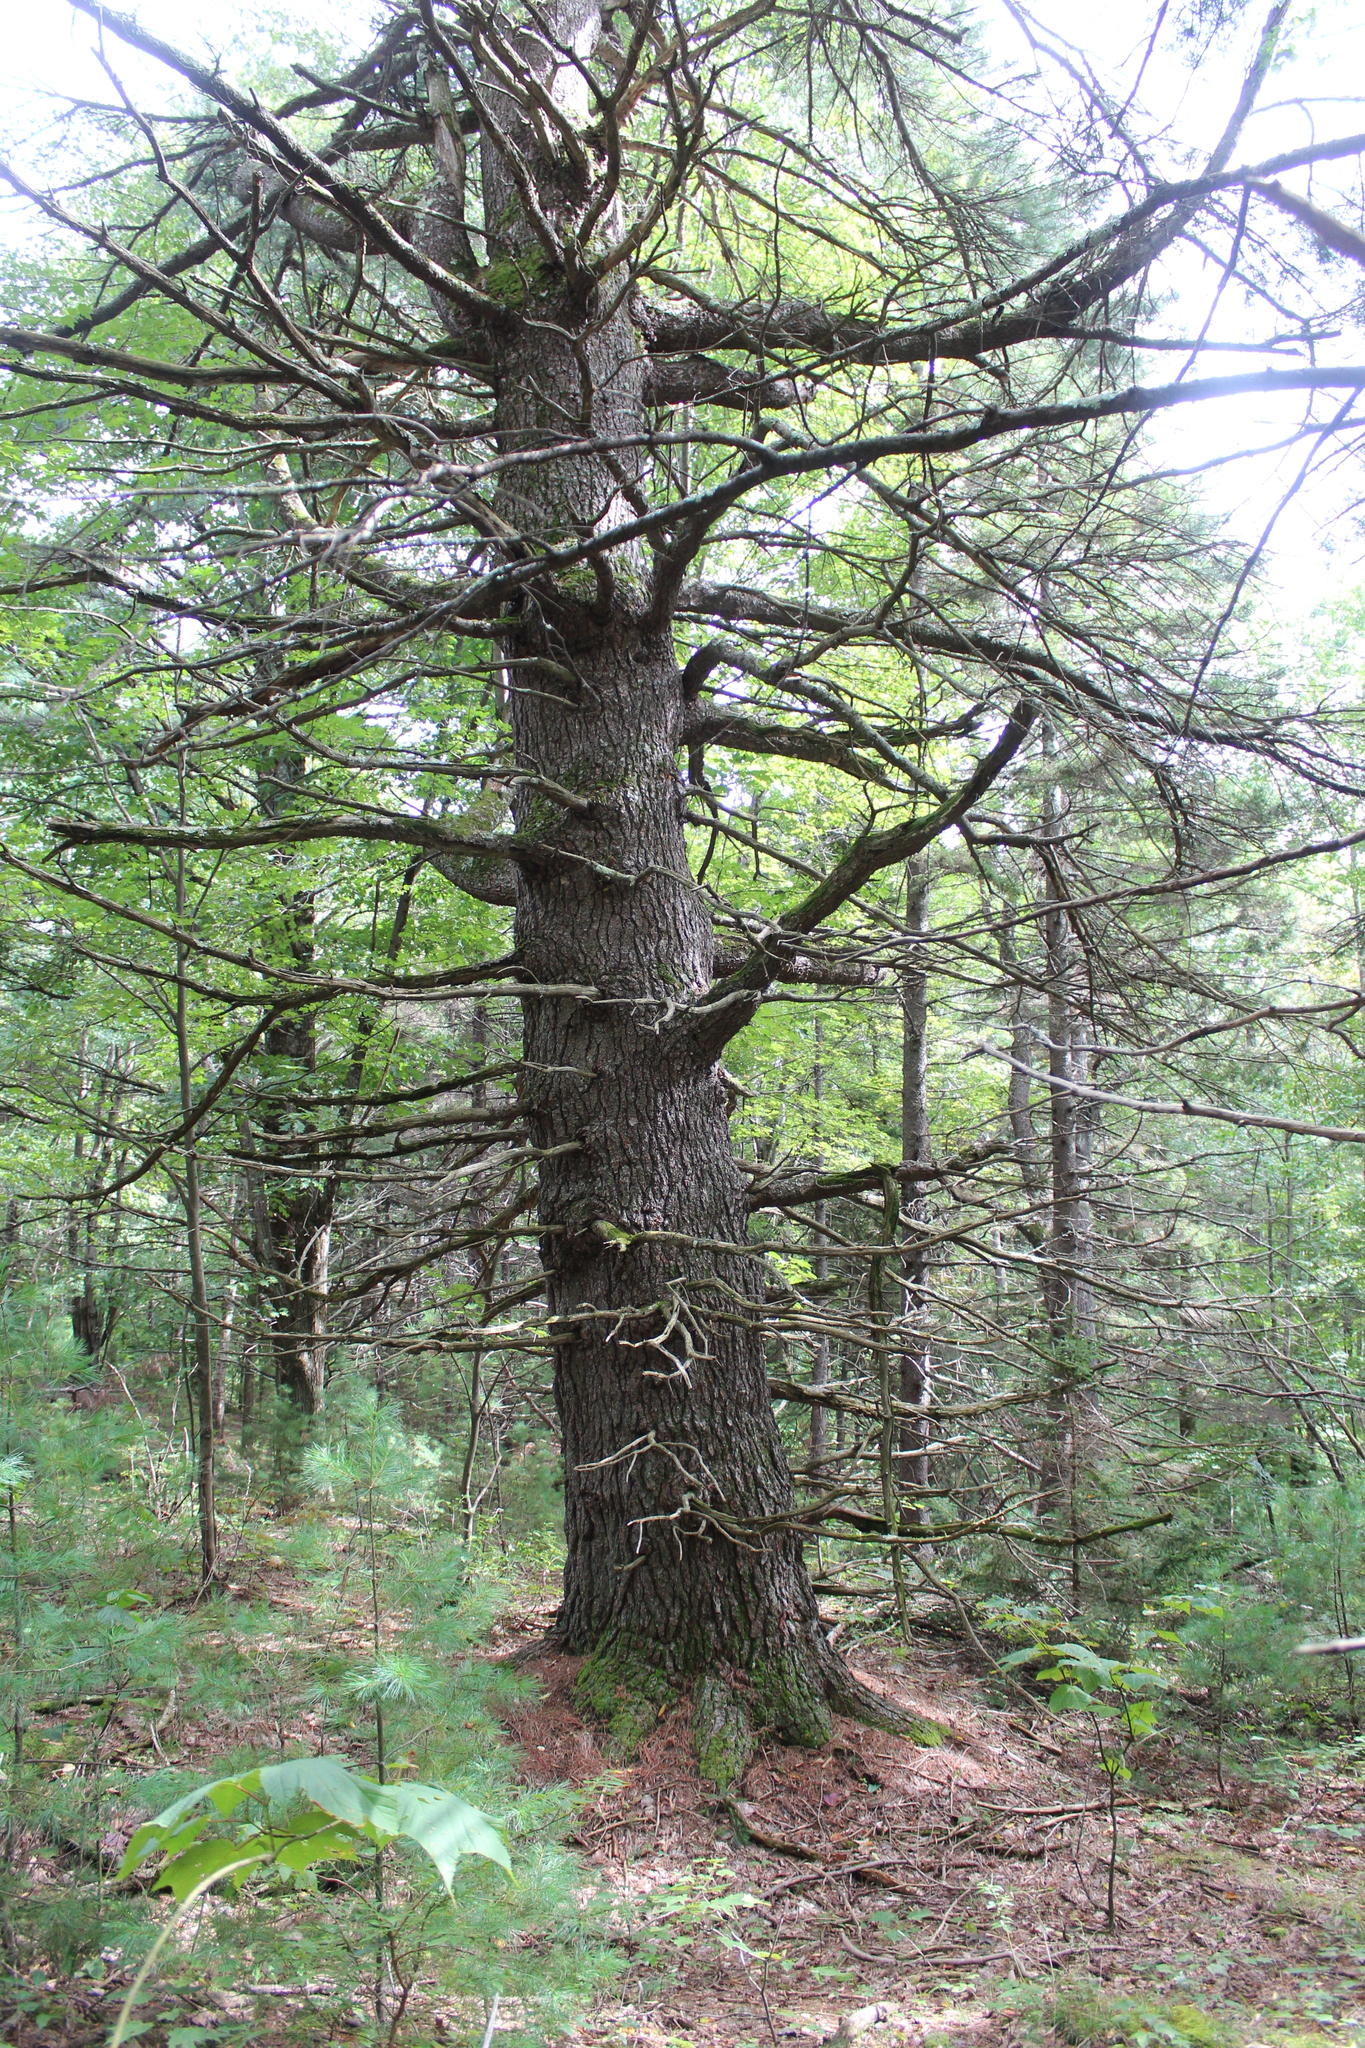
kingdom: Plantae
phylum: Tracheophyta
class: Pinopsida
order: Pinales
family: Pinaceae
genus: Pinus
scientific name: Pinus strobus
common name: Weymouth pine
